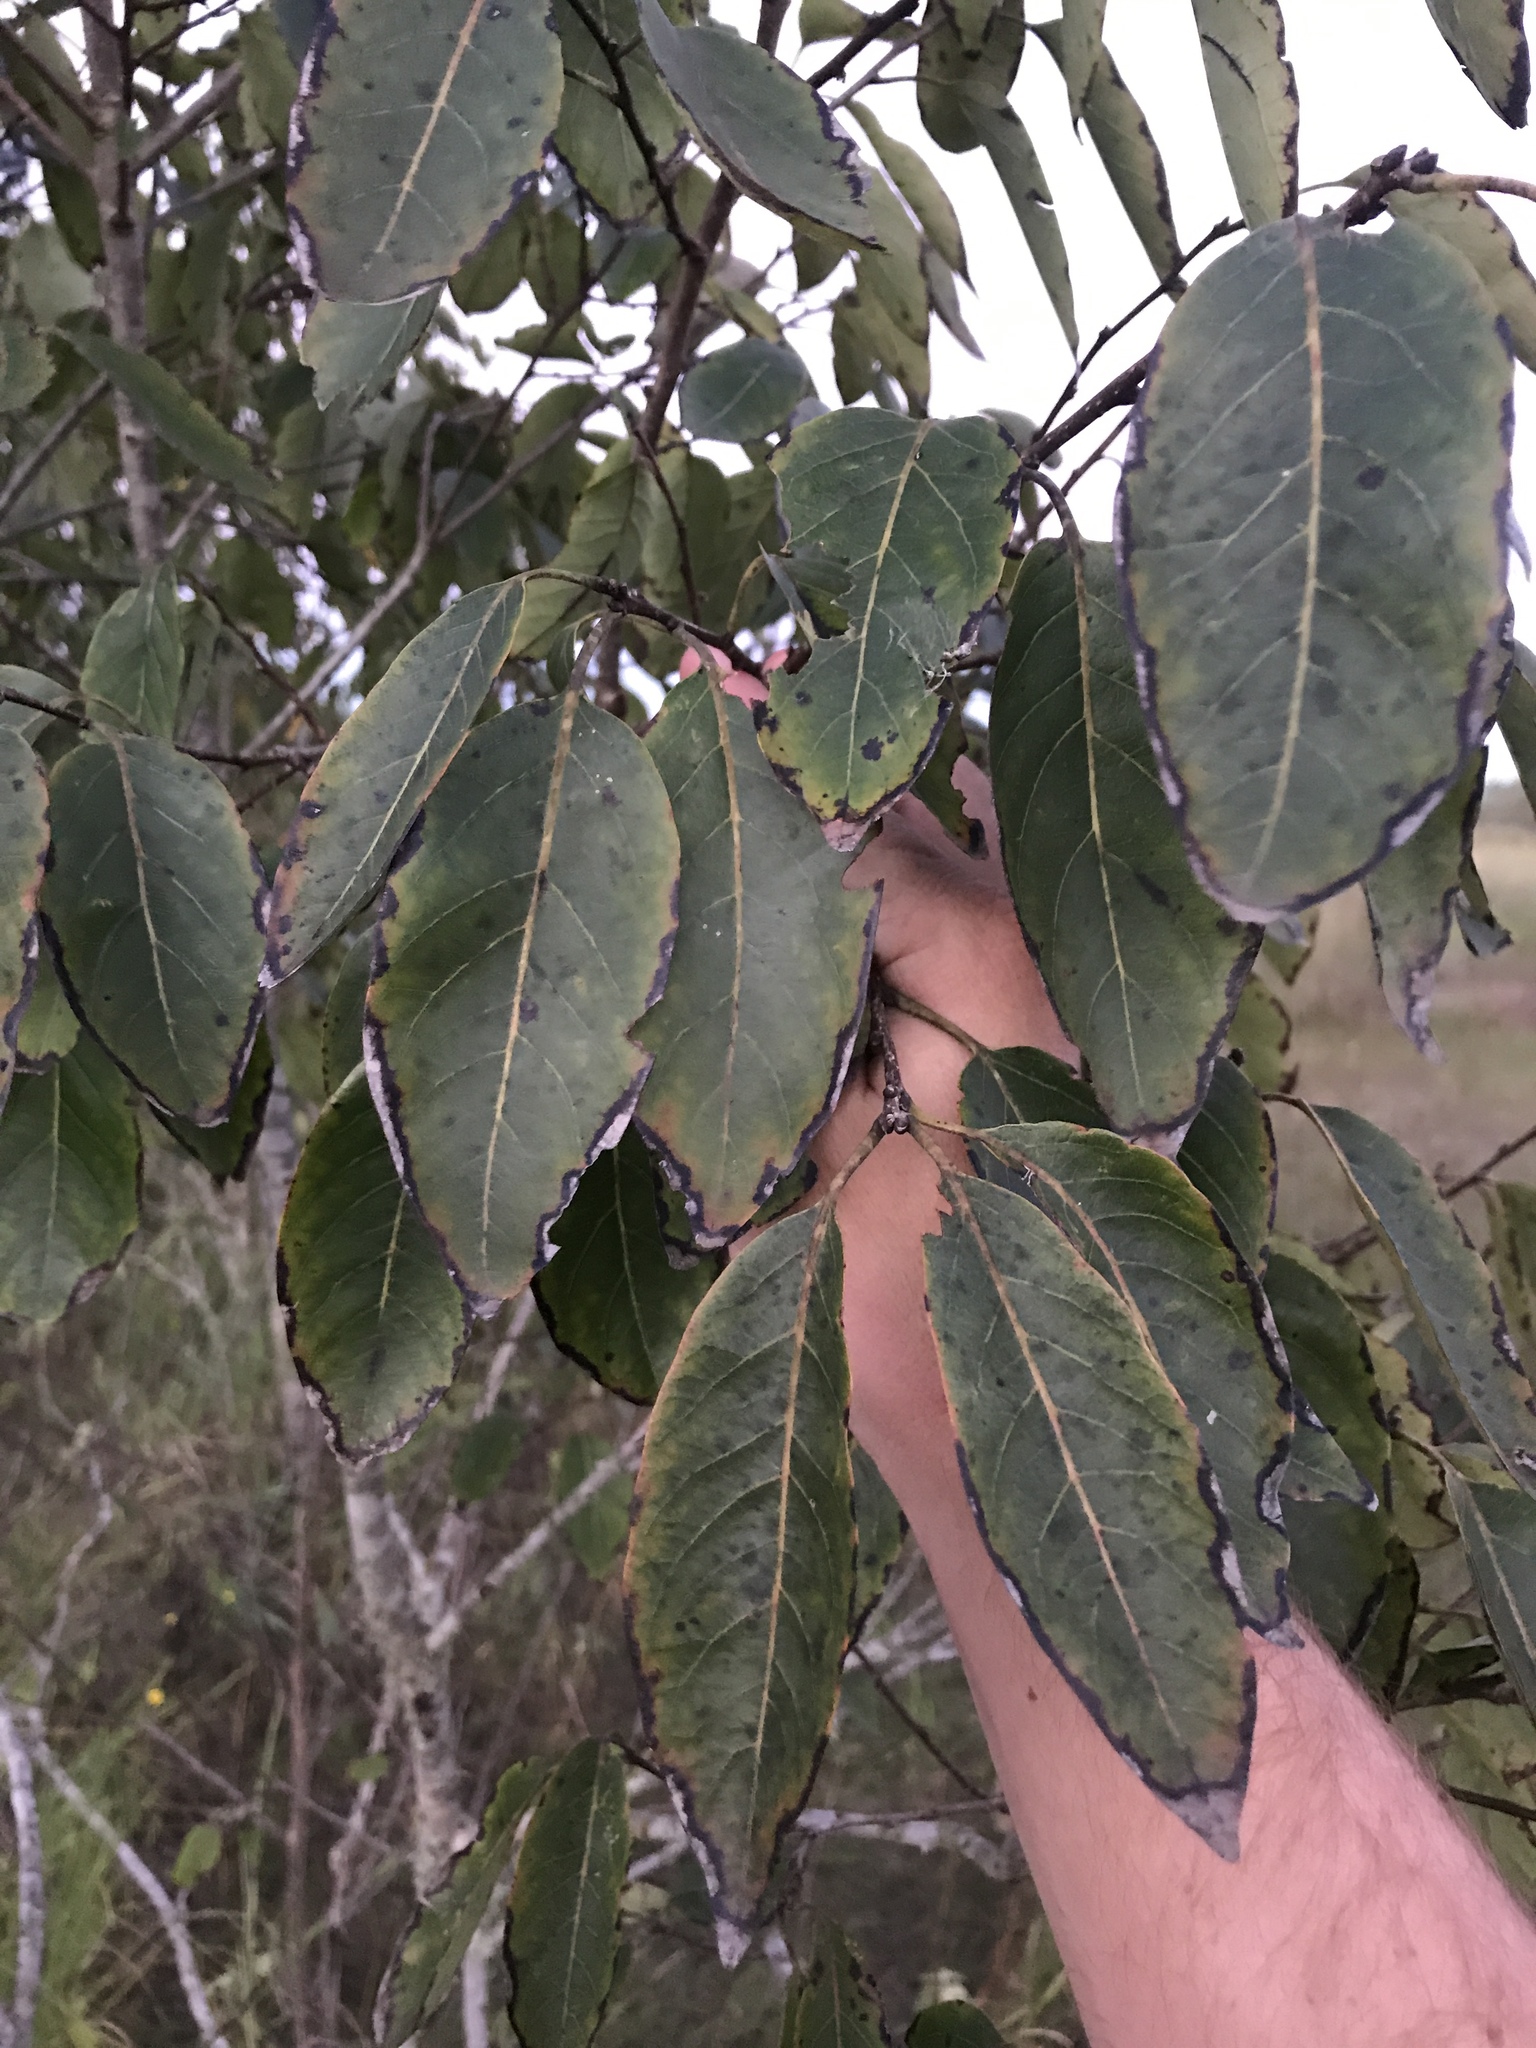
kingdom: Plantae
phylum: Tracheophyta
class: Magnoliopsida
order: Ericales
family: Ebenaceae
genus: Diospyros
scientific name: Diospyros virginiana
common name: Persimmon
